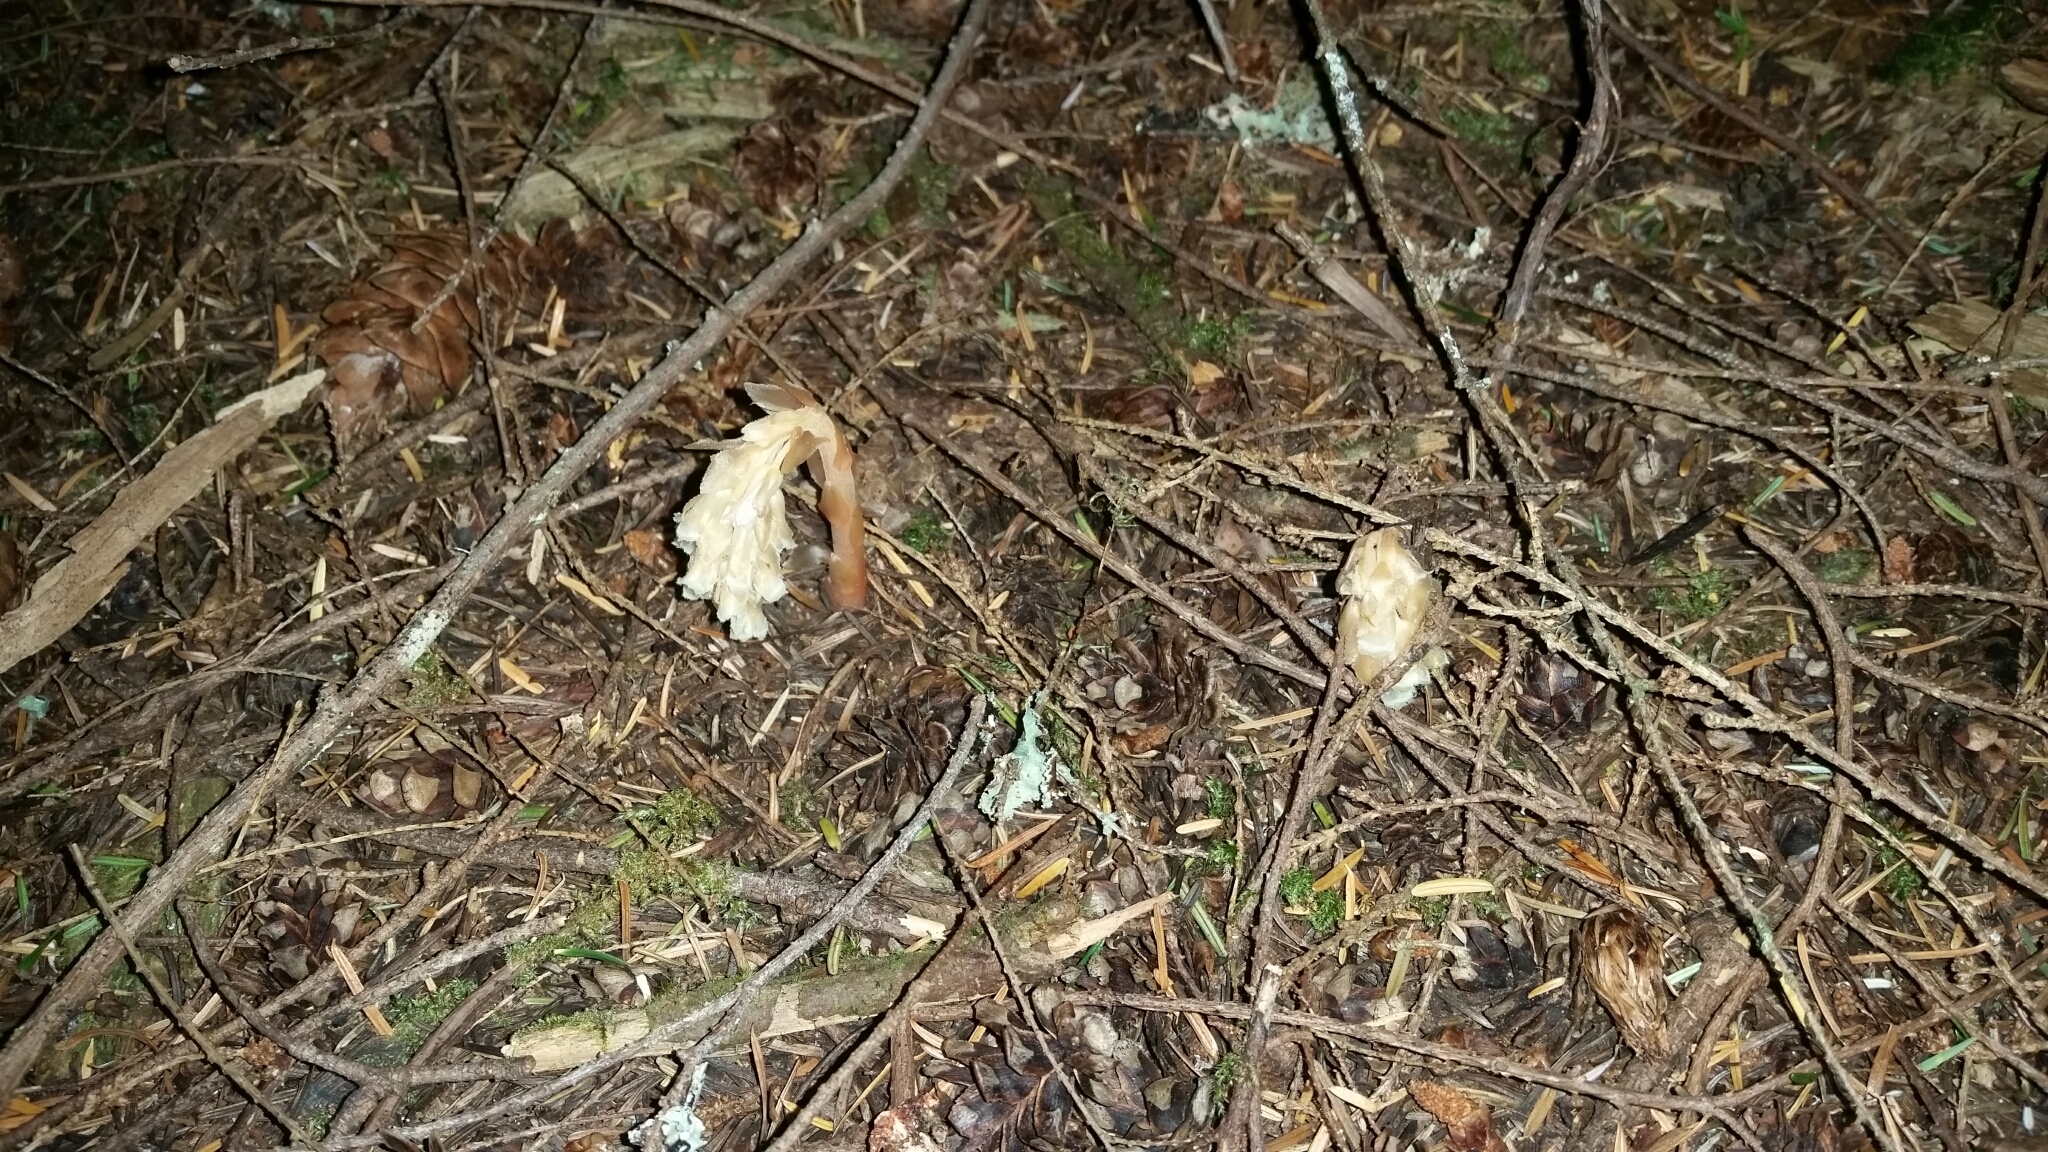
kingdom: Plantae
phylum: Tracheophyta
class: Magnoliopsida
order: Ericales
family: Ericaceae
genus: Hypopitys
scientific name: Hypopitys monotropa
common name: Yellow bird's-nest
